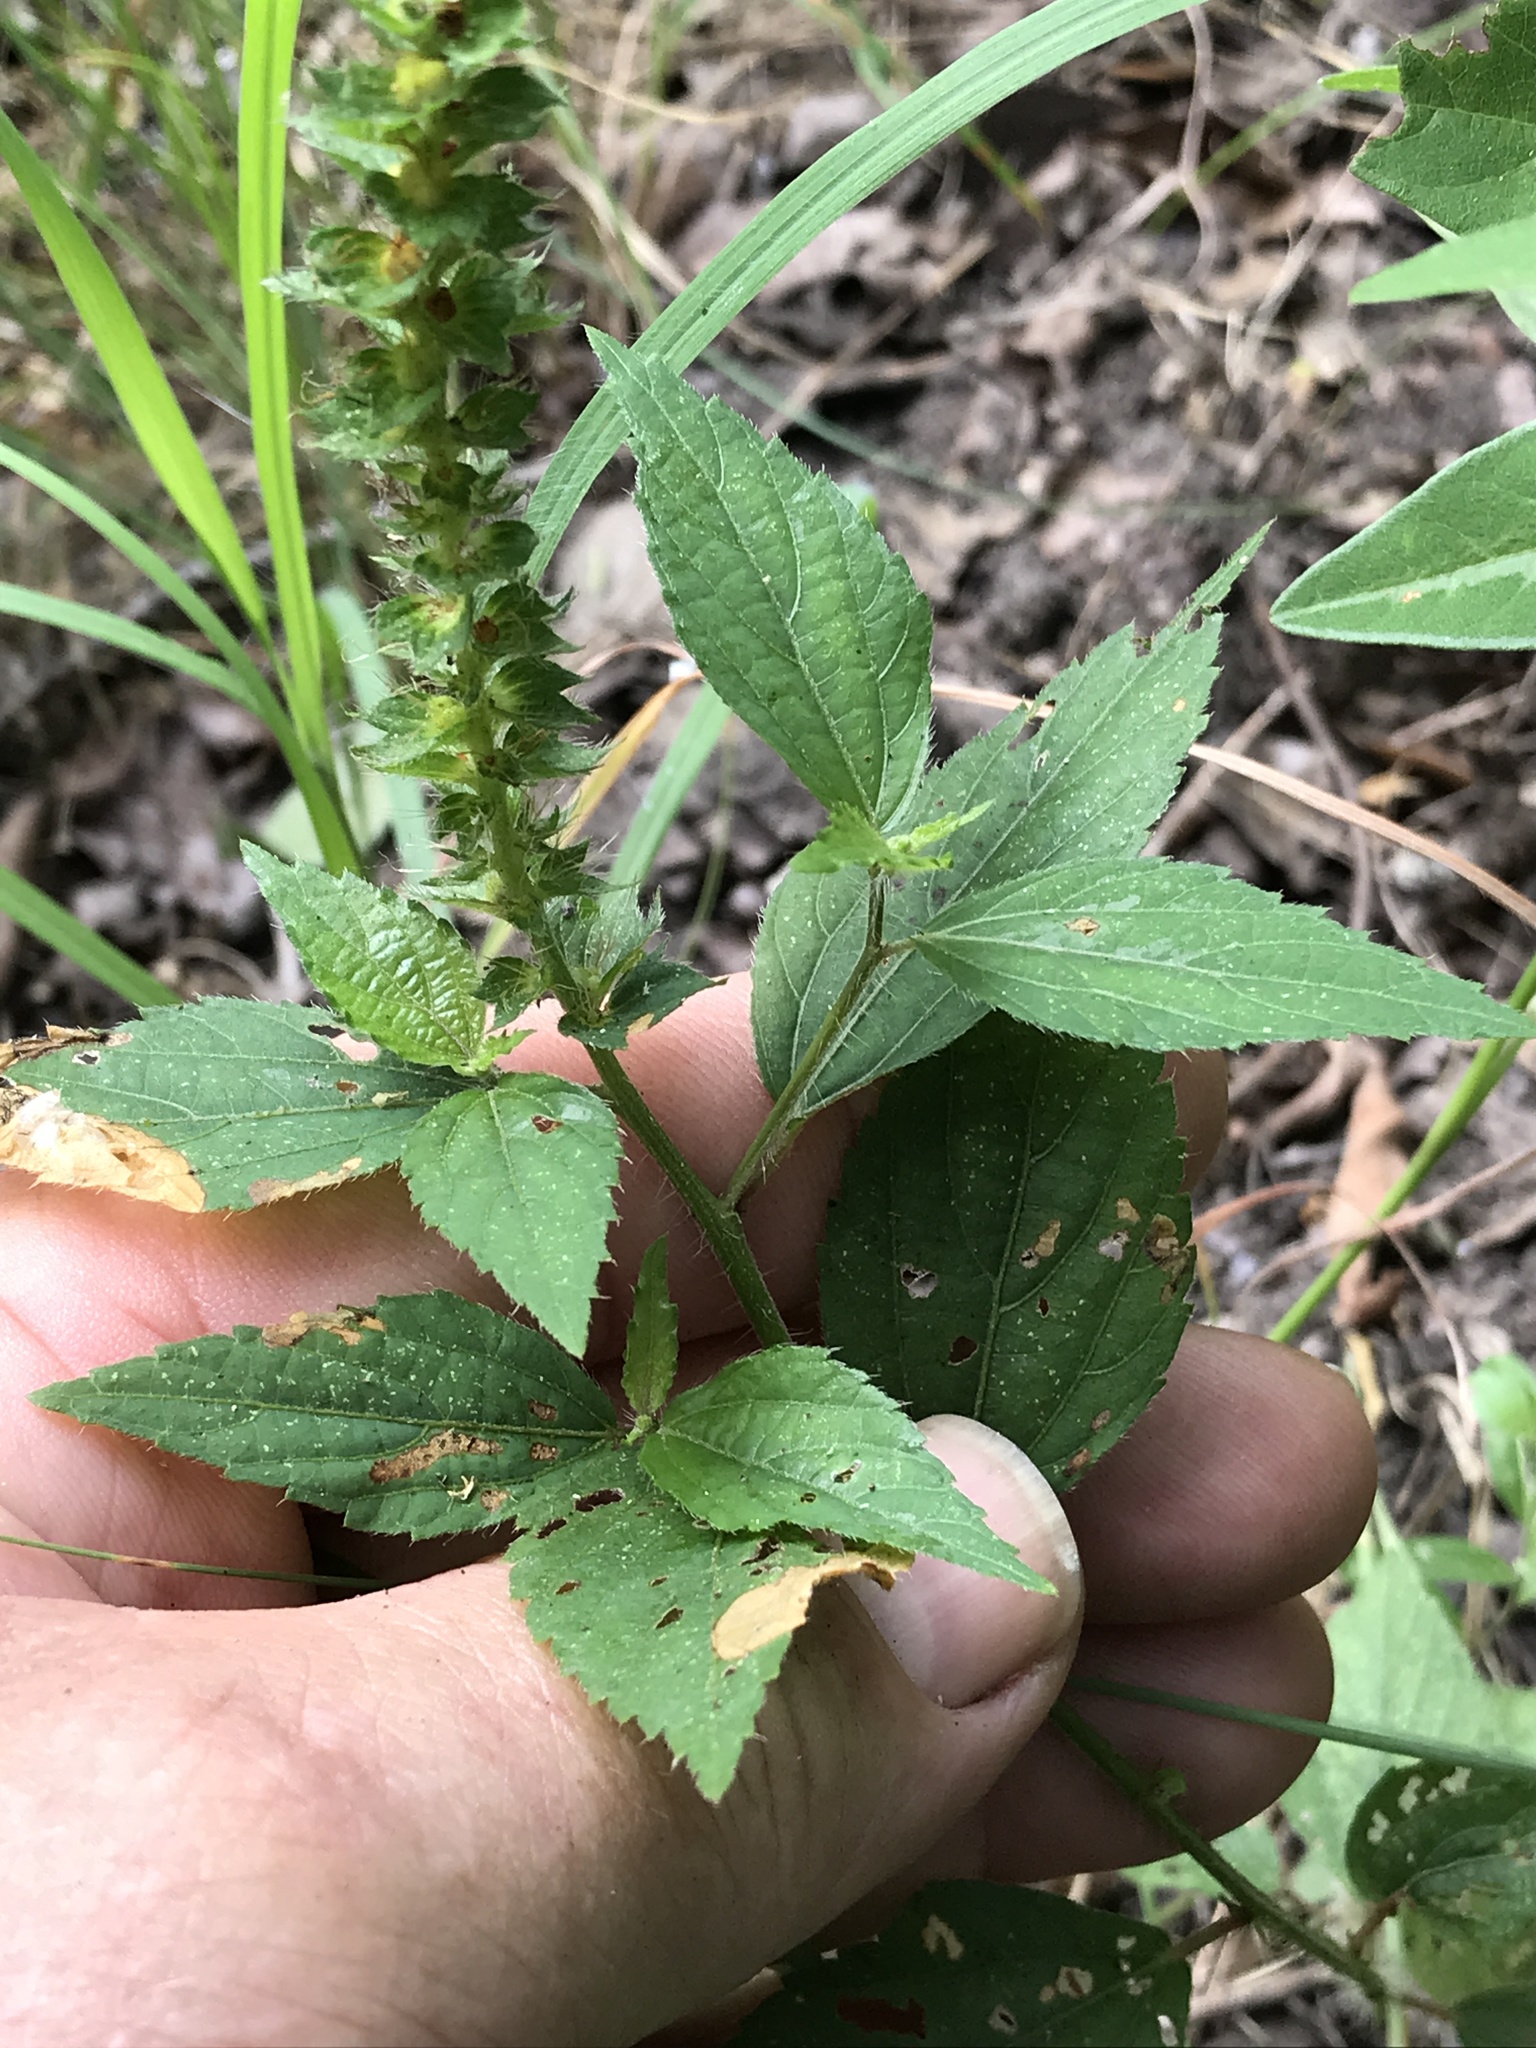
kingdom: Plantae
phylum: Tracheophyta
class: Magnoliopsida
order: Malpighiales
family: Euphorbiaceae
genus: Acalypha
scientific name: Acalypha phleoides
